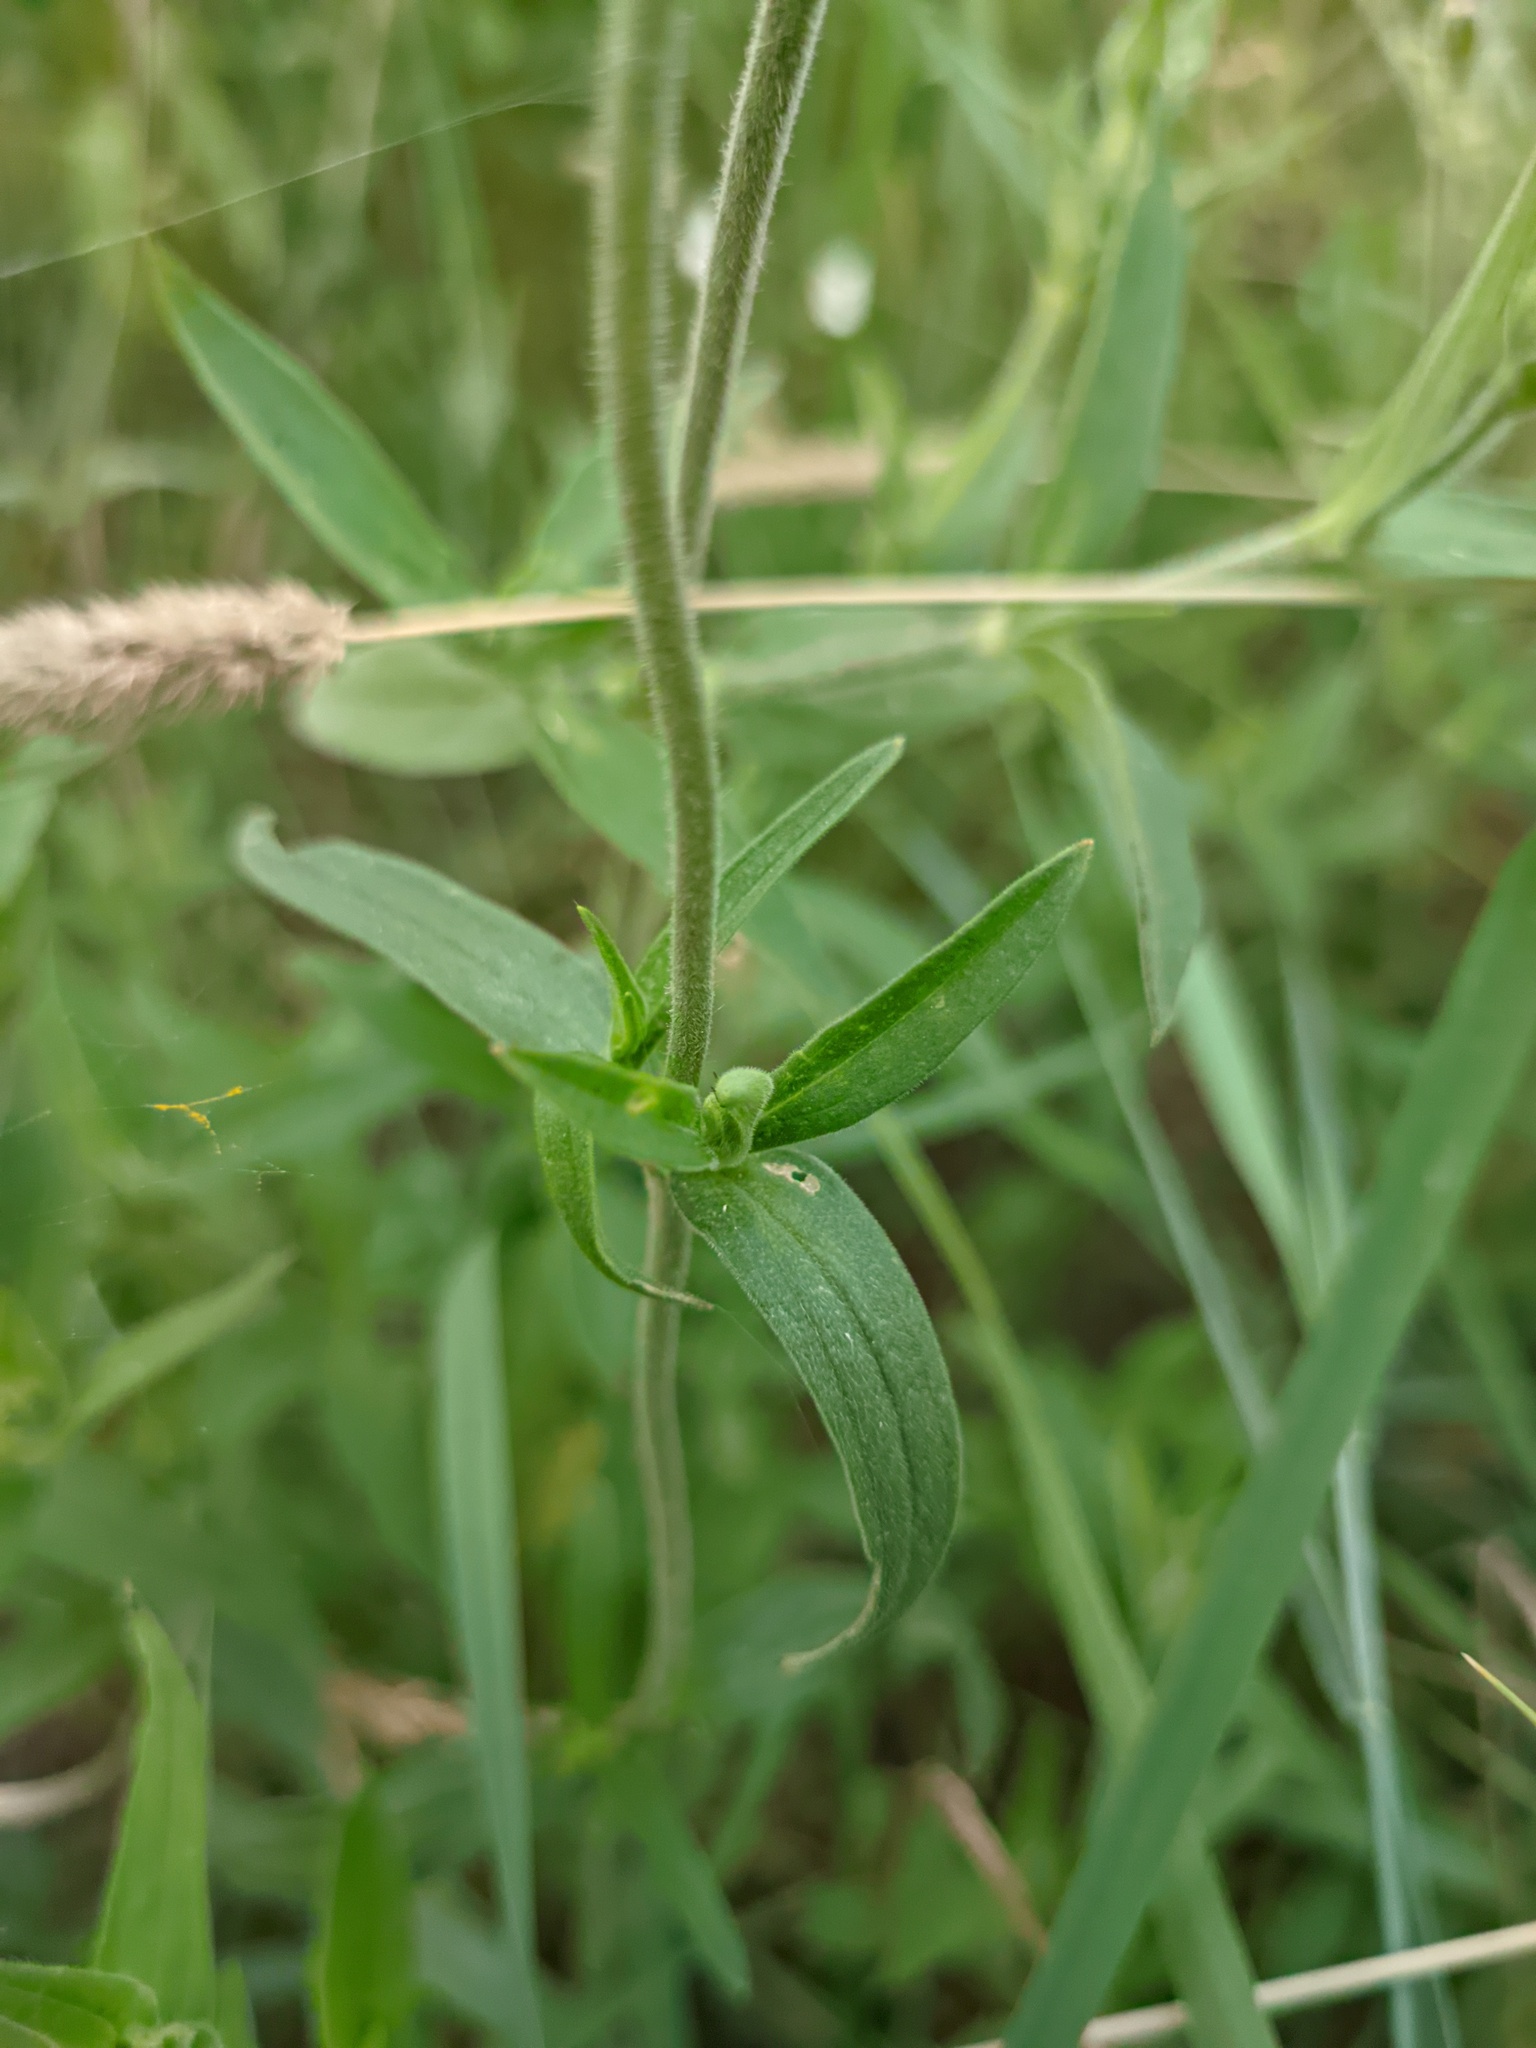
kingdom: Plantae
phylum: Tracheophyta
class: Magnoliopsida
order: Caryophyllales
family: Caryophyllaceae
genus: Silene
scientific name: Silene latifolia
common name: White campion
